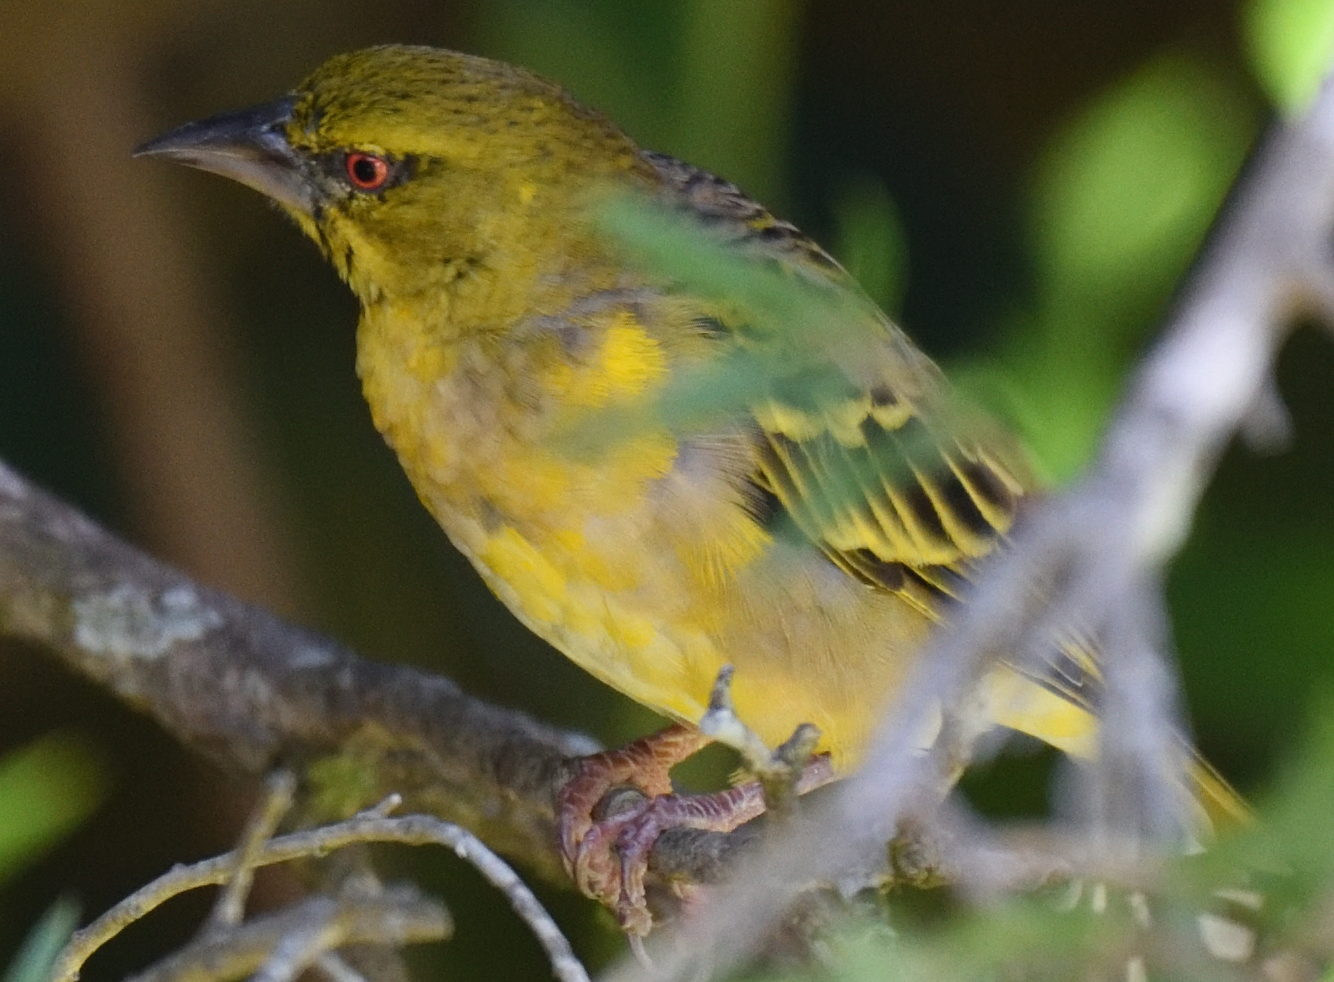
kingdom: Animalia
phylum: Chordata
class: Aves
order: Passeriformes
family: Ploceidae
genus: Ploceus
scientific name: Ploceus cucullatus
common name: Village weaver
